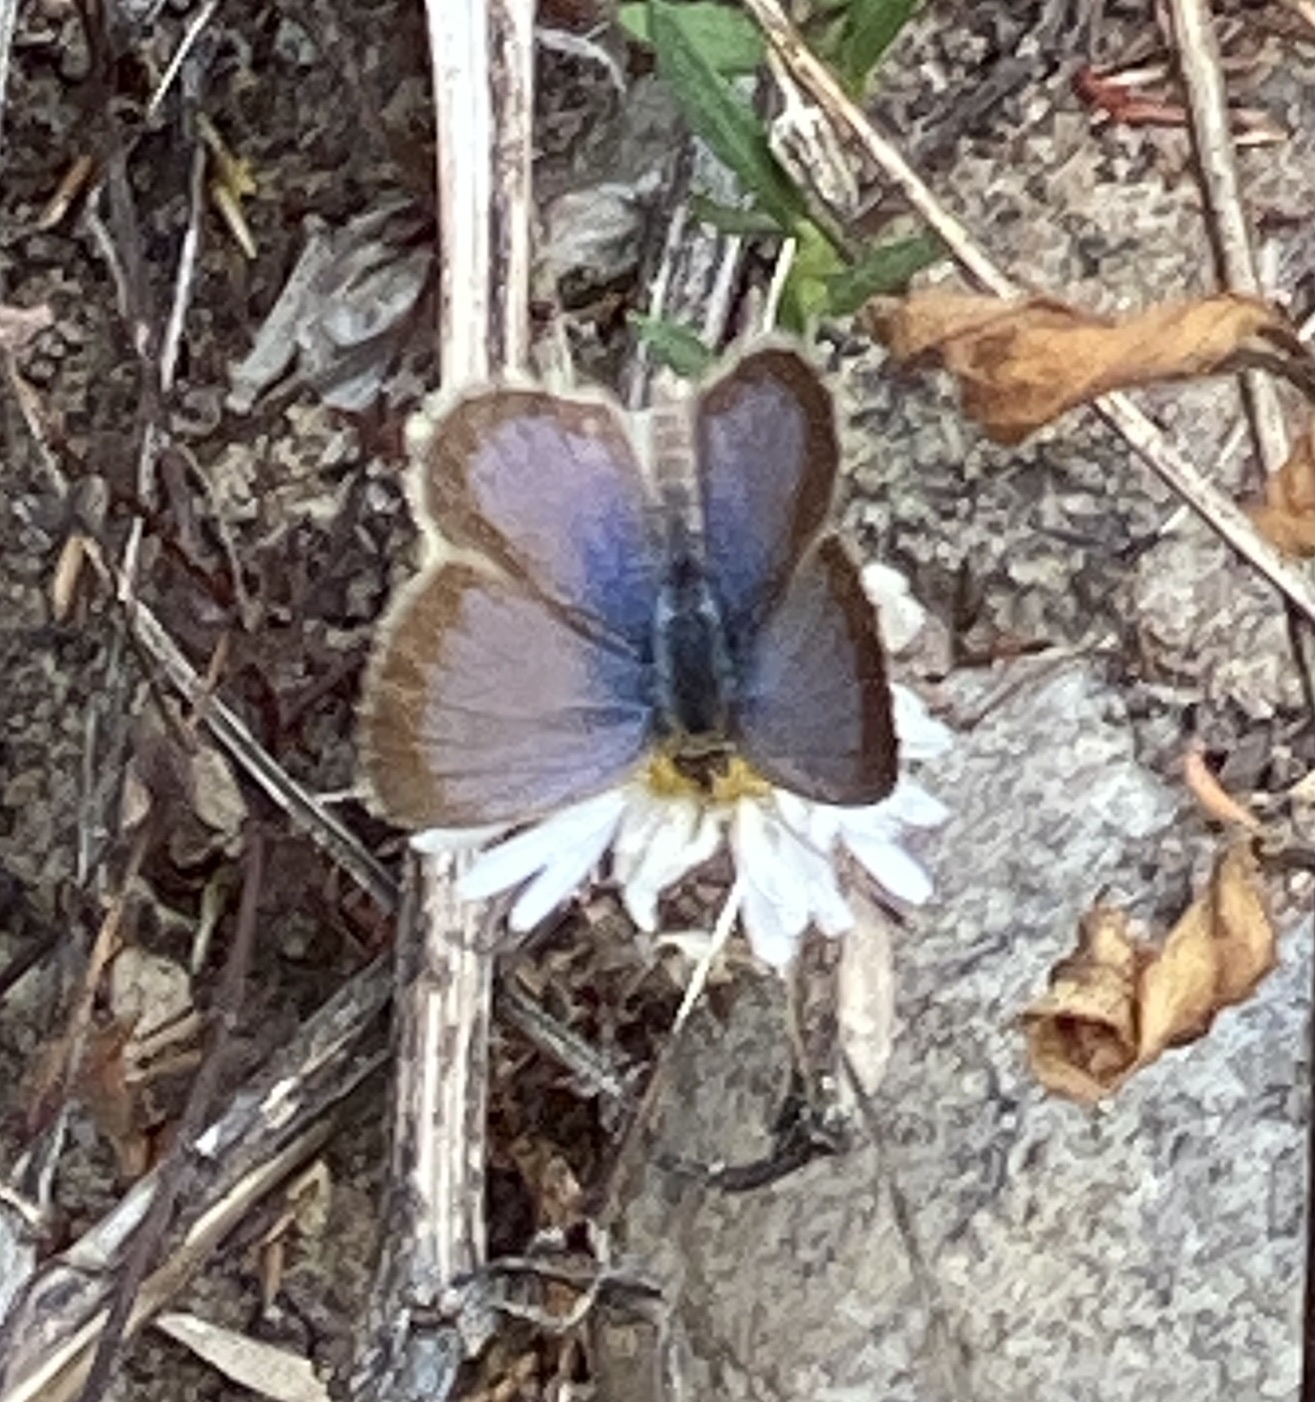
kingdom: Animalia
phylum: Arthropoda
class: Insecta
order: Lepidoptera
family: Lycaenidae
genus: Zizeeria
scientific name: Zizeeria knysna
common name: African grass blue
